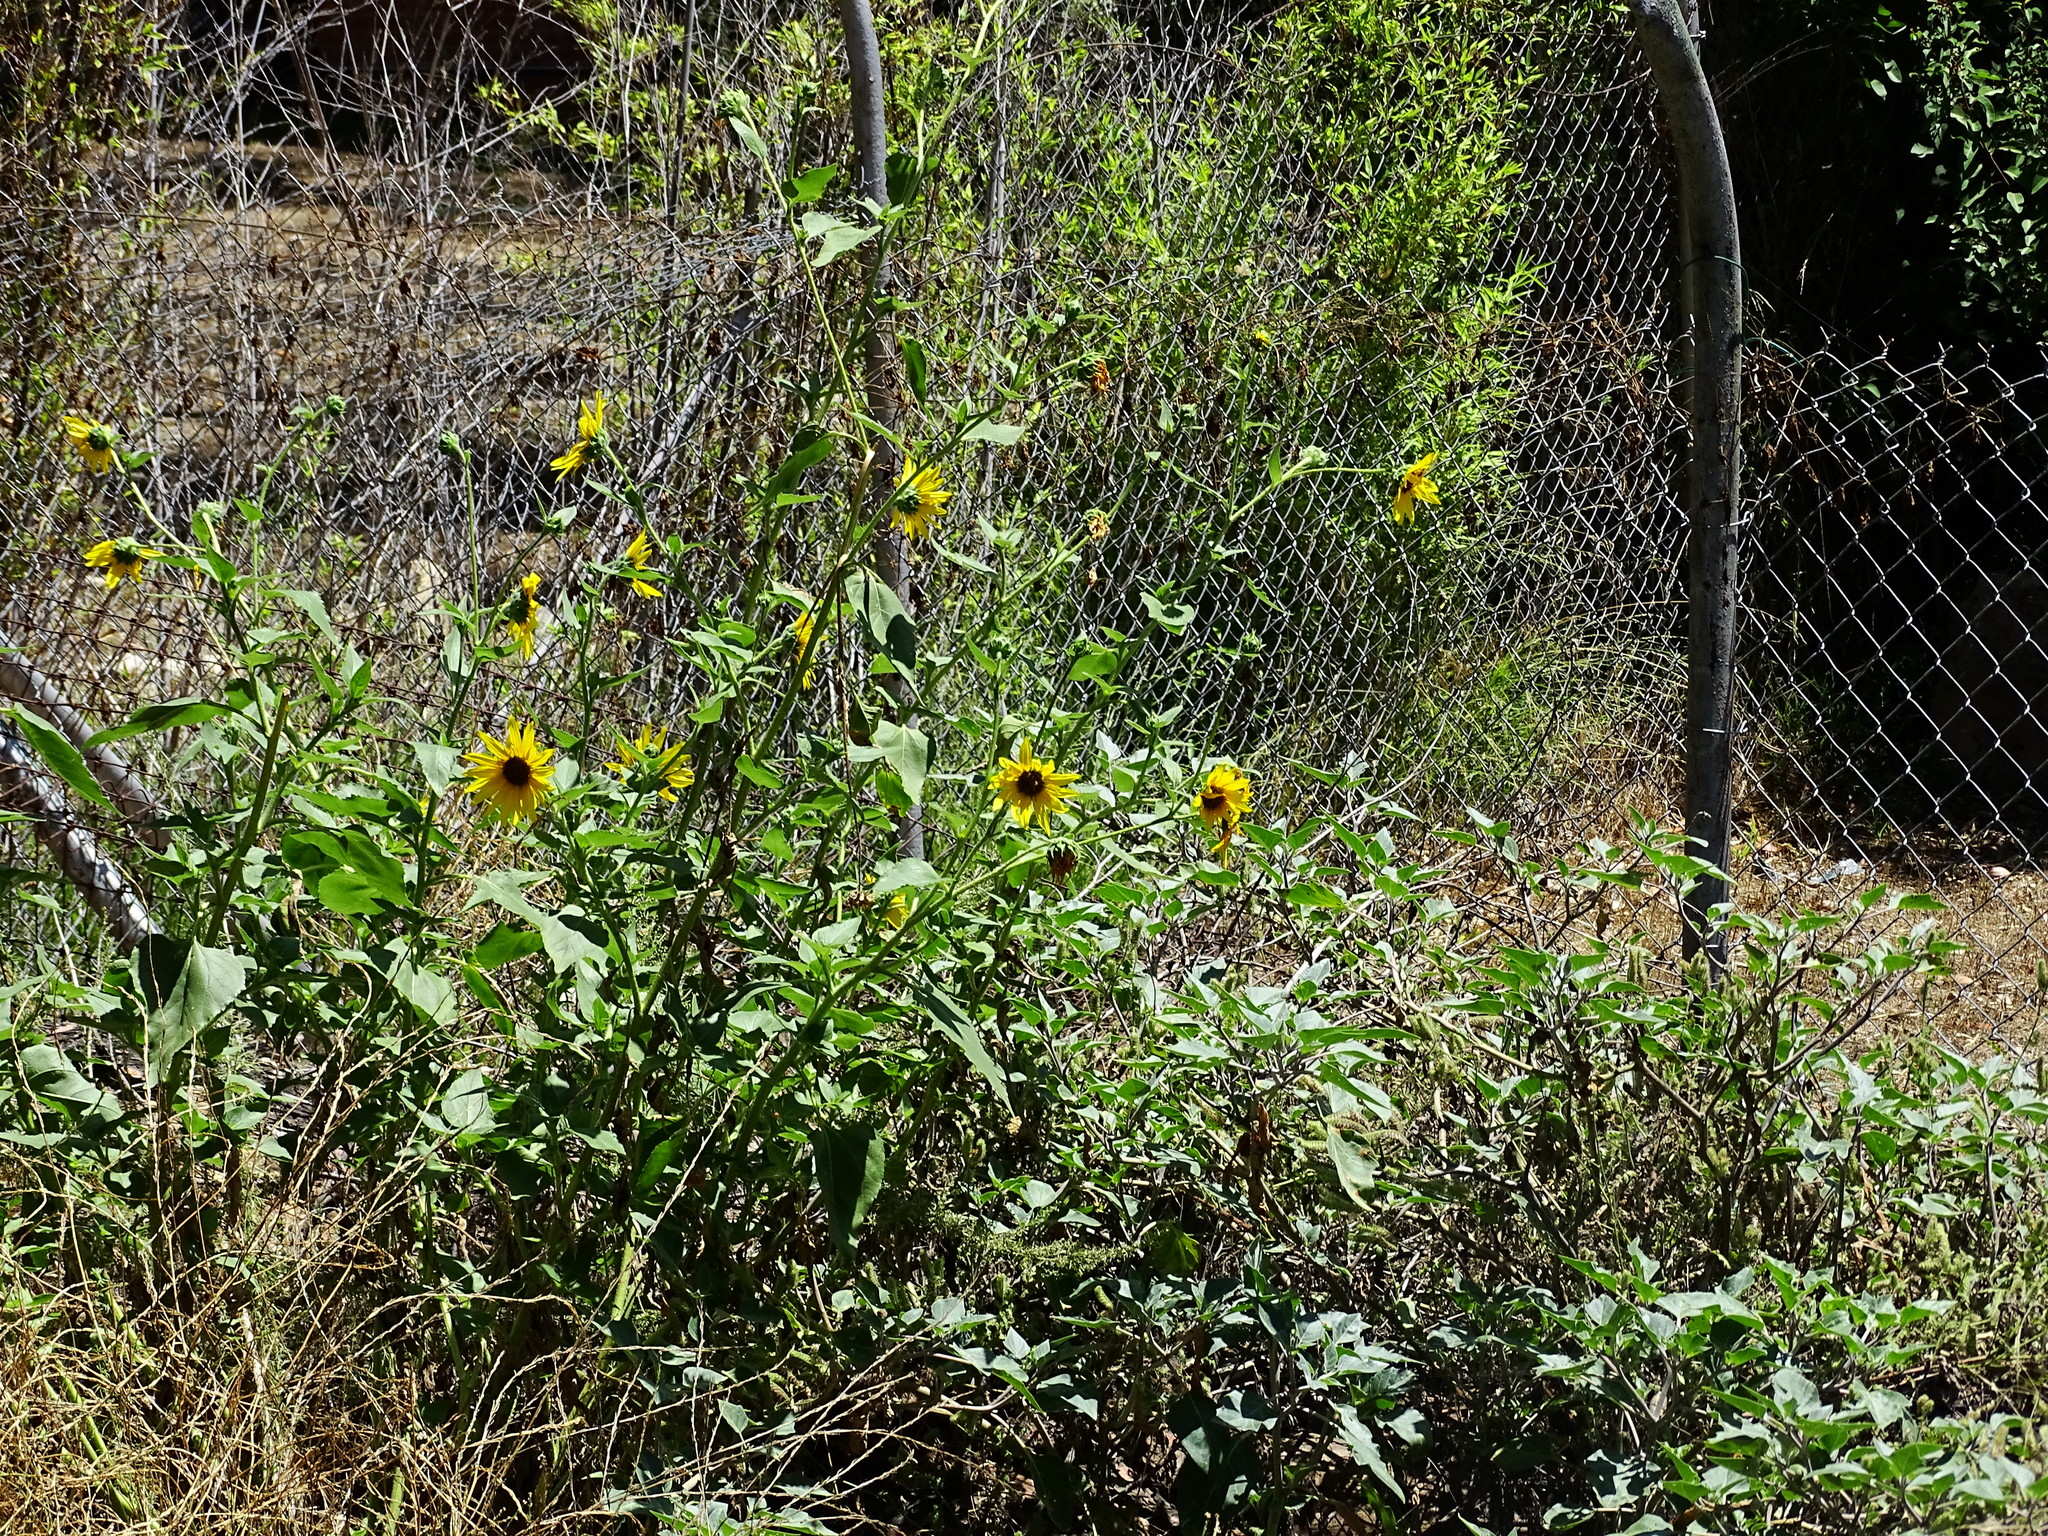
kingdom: Plantae
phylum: Tracheophyta
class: Magnoliopsida
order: Asterales
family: Asteraceae
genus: Helianthus
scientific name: Helianthus annuus
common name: Sunflower
